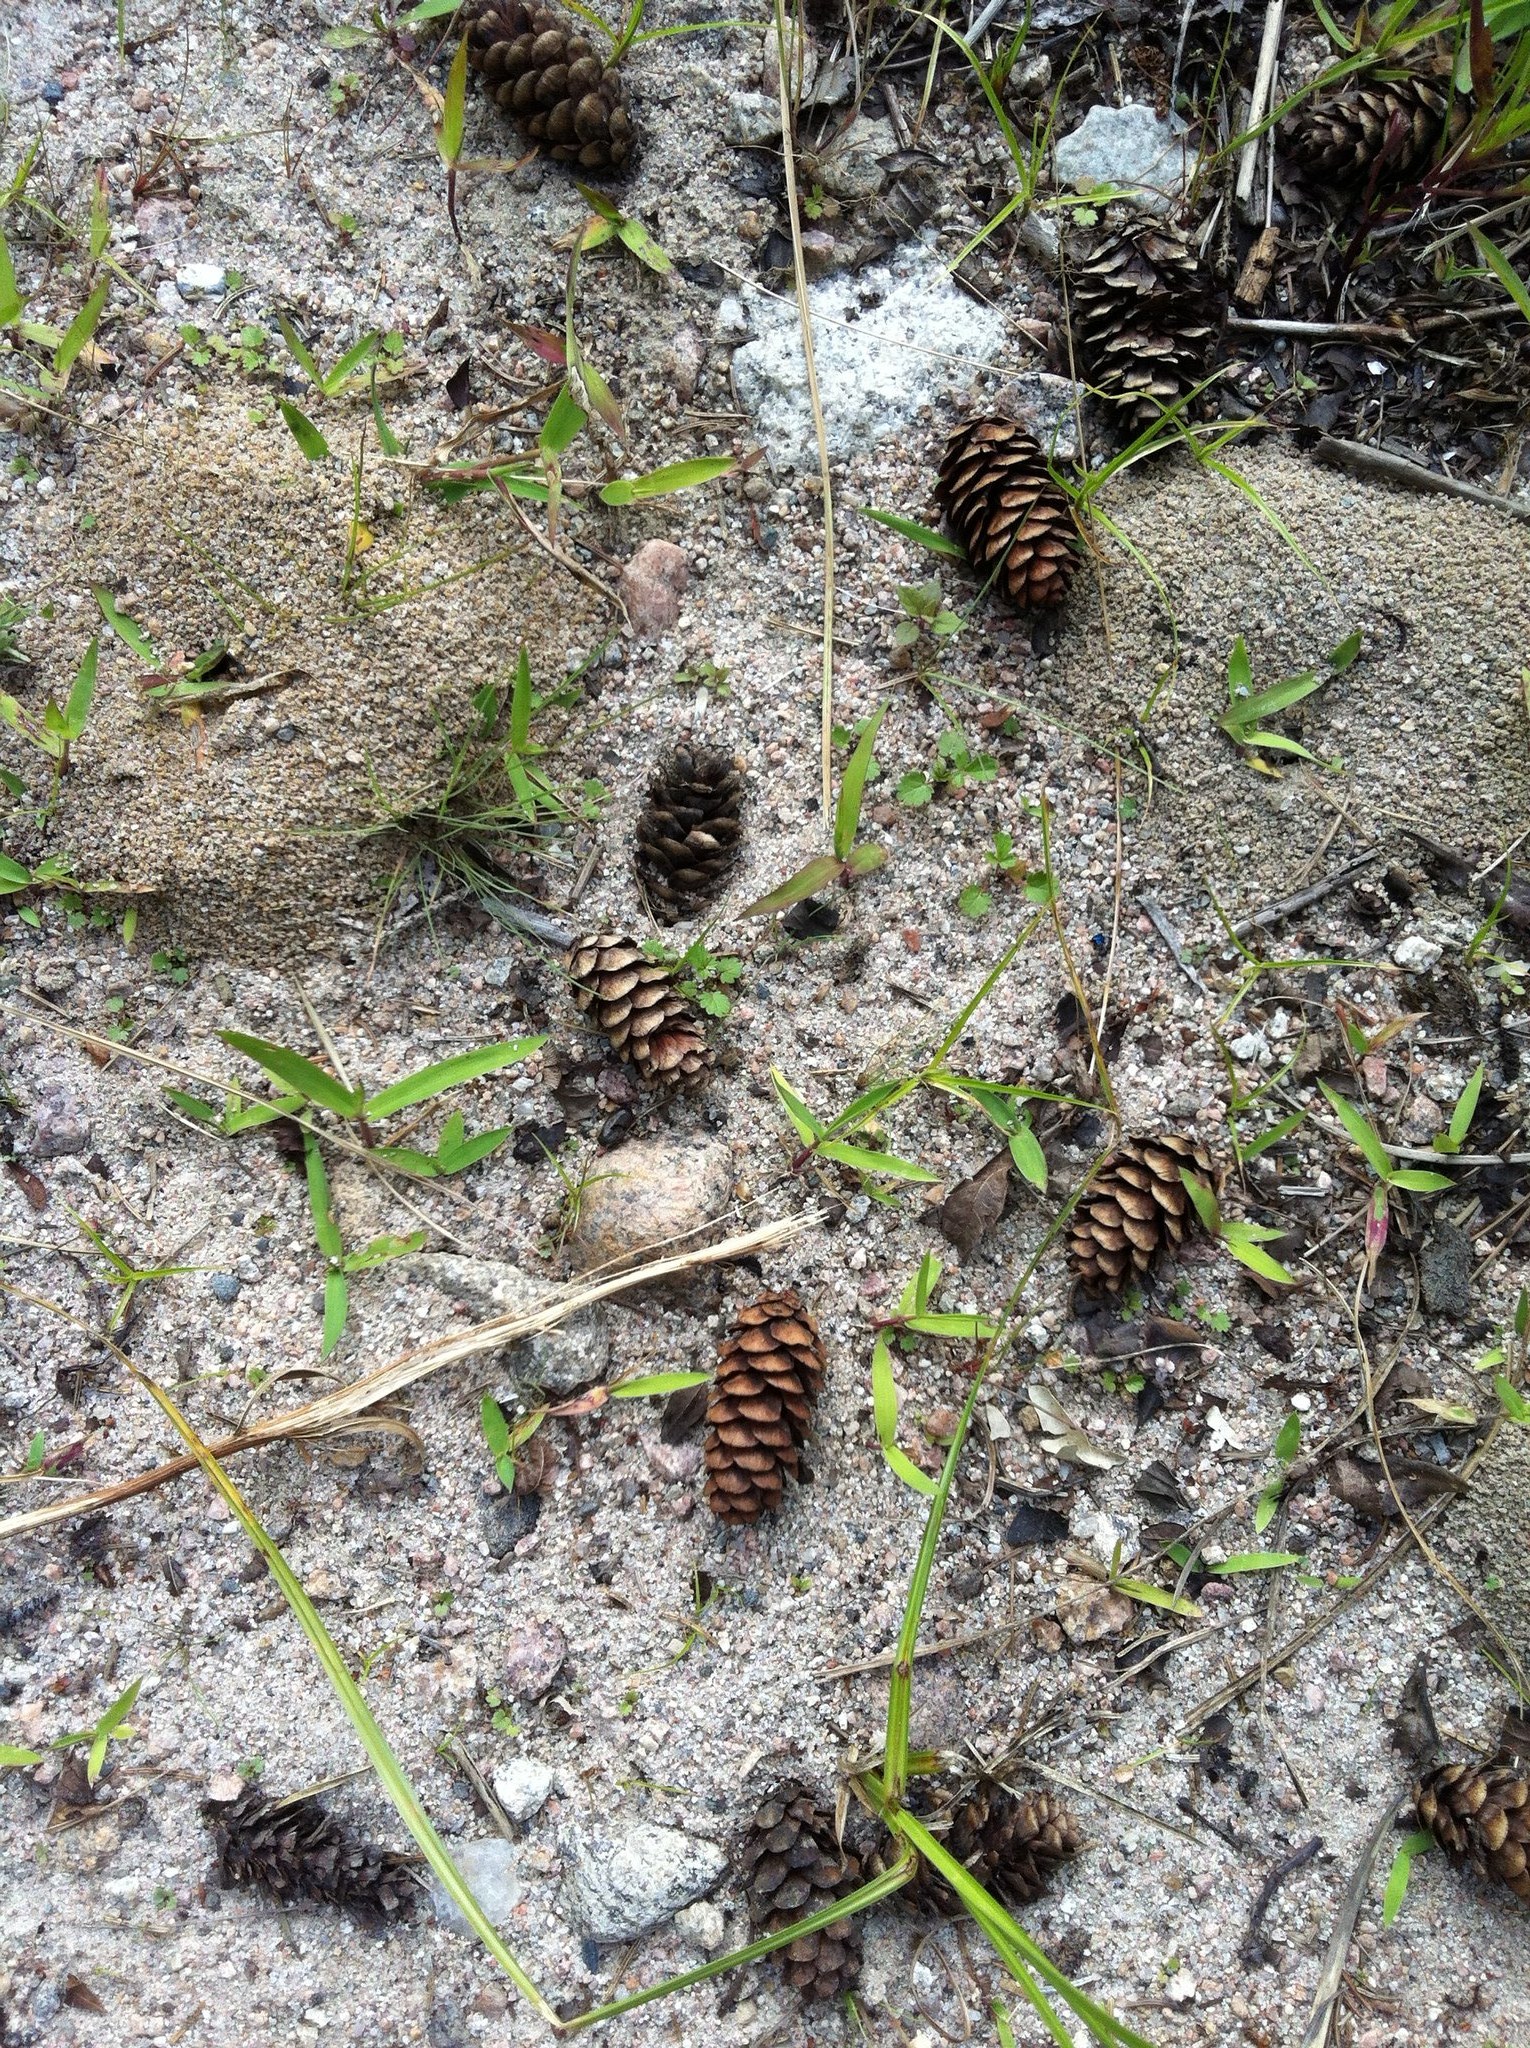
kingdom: Plantae
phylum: Tracheophyta
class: Pinopsida
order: Pinales
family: Pinaceae
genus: Picea
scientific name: Picea glauca
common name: White spruce
